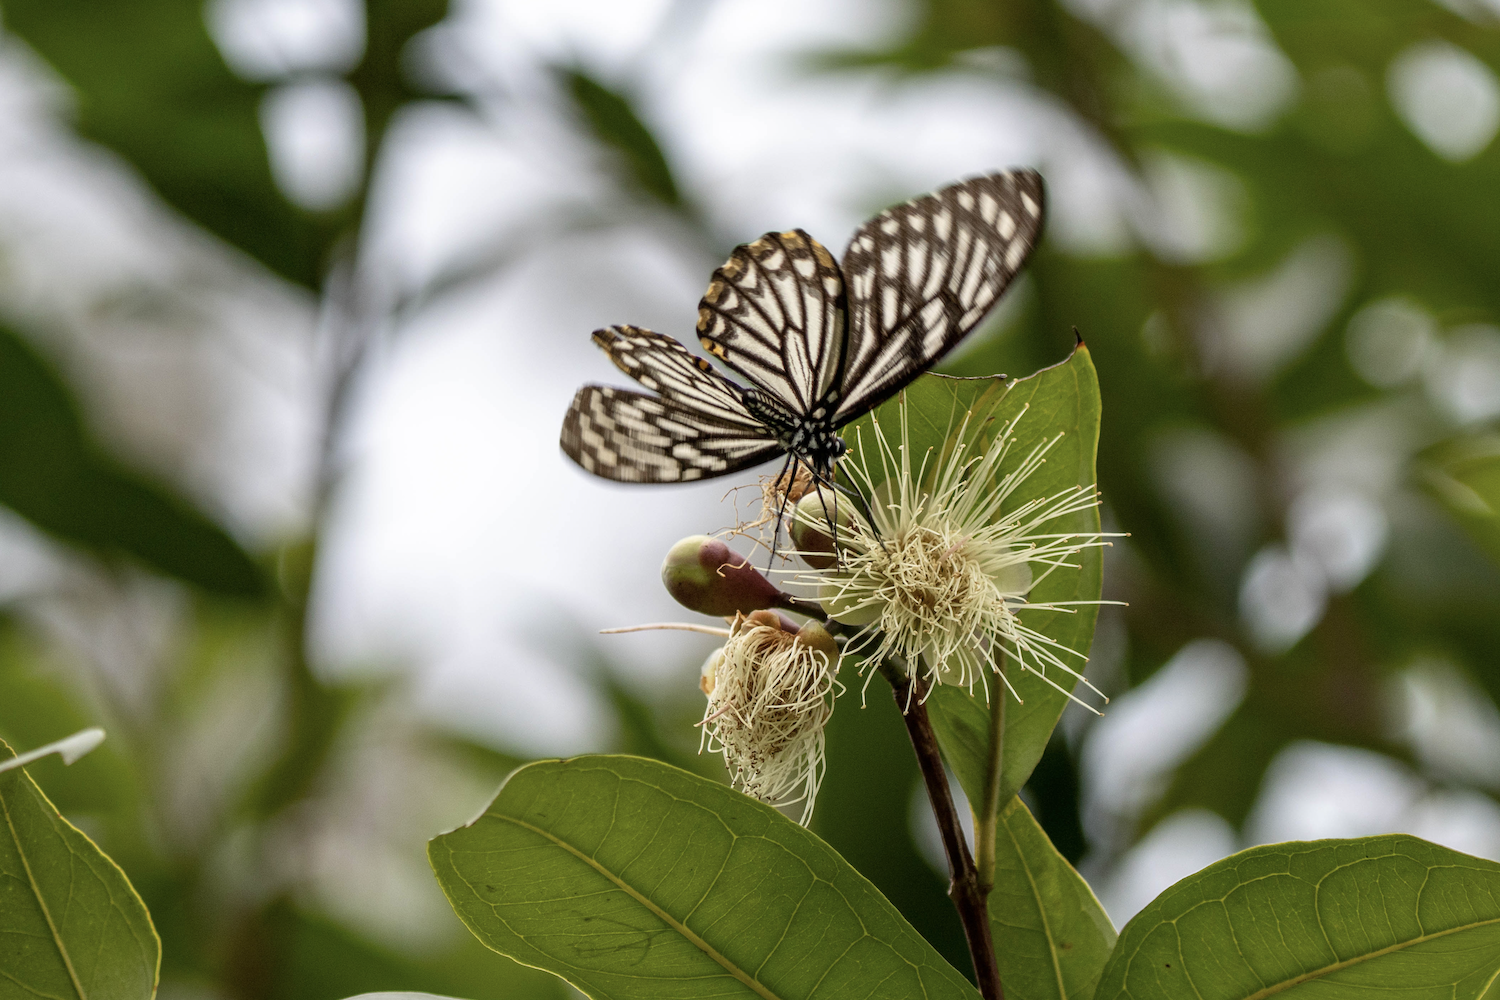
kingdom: Animalia
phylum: Arthropoda
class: Insecta
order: Lepidoptera
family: Papilionidae
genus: Chilasa
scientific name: Chilasa clytia
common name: Common mime
